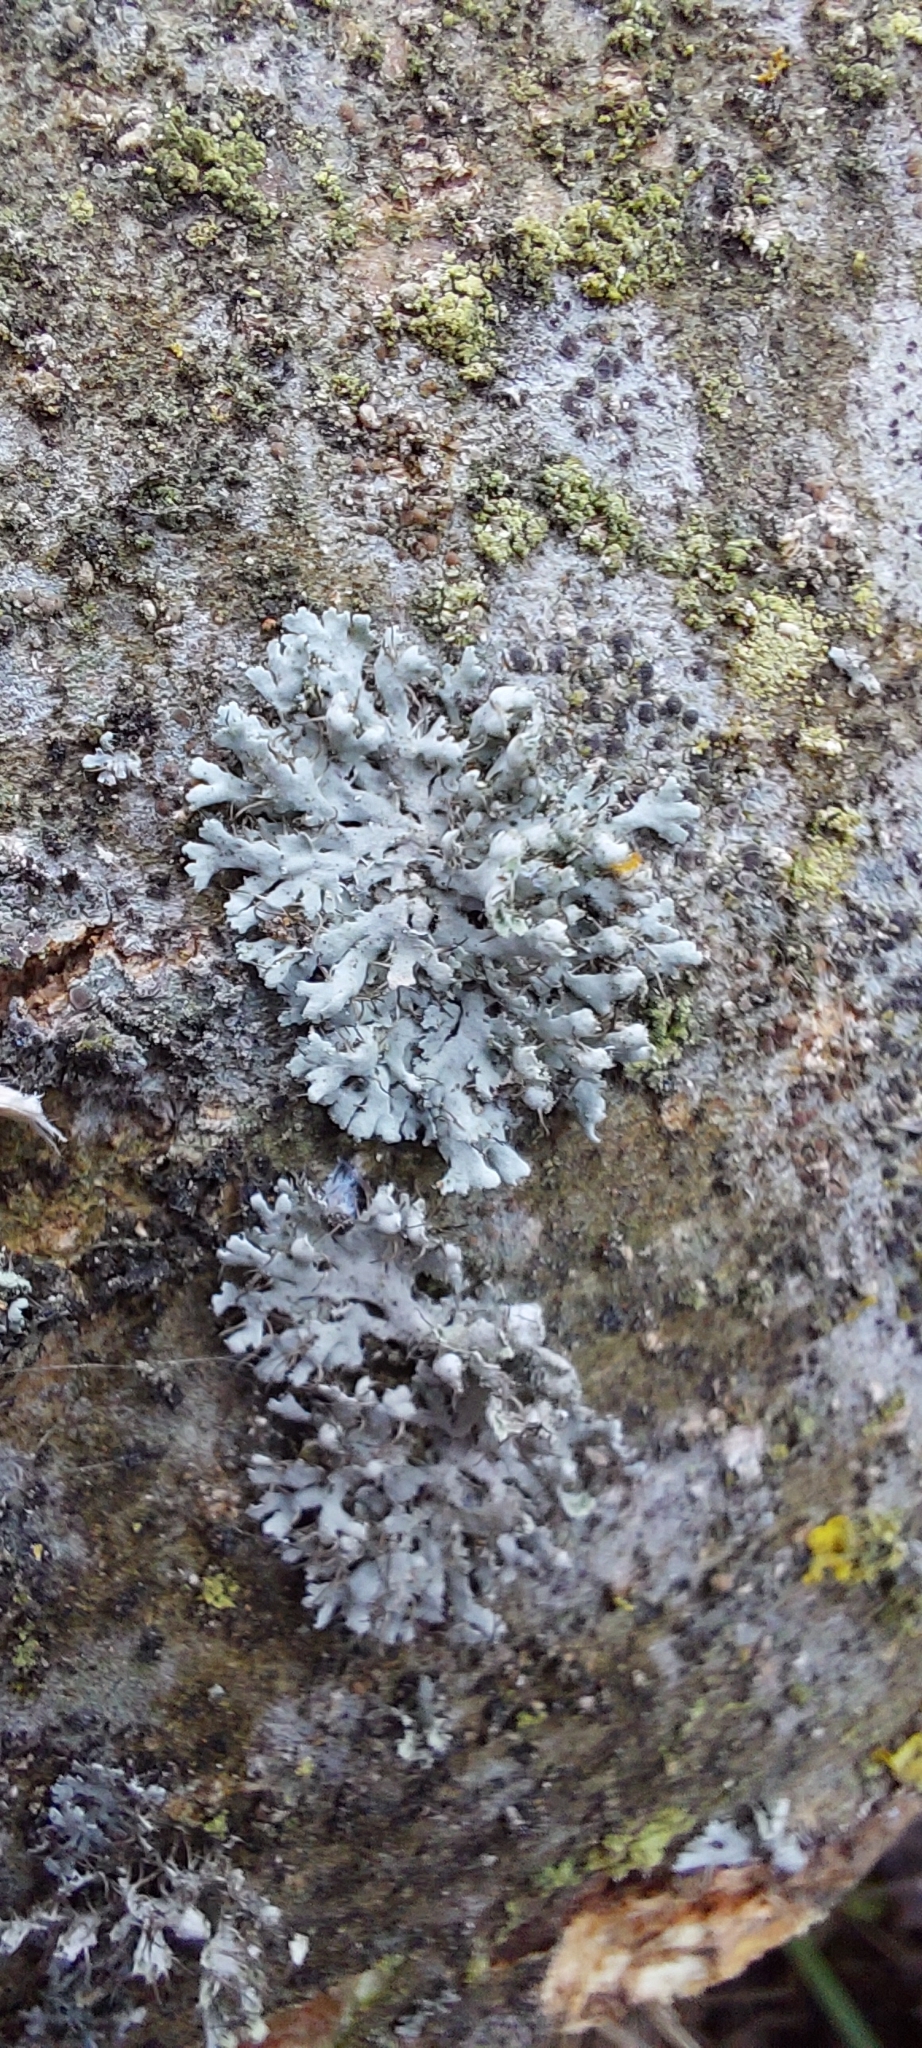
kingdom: Fungi
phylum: Ascomycota
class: Lecanoromycetes
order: Caliciales
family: Physciaceae
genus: Physcia
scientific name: Physcia adscendens
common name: Hooded rosette lichen
